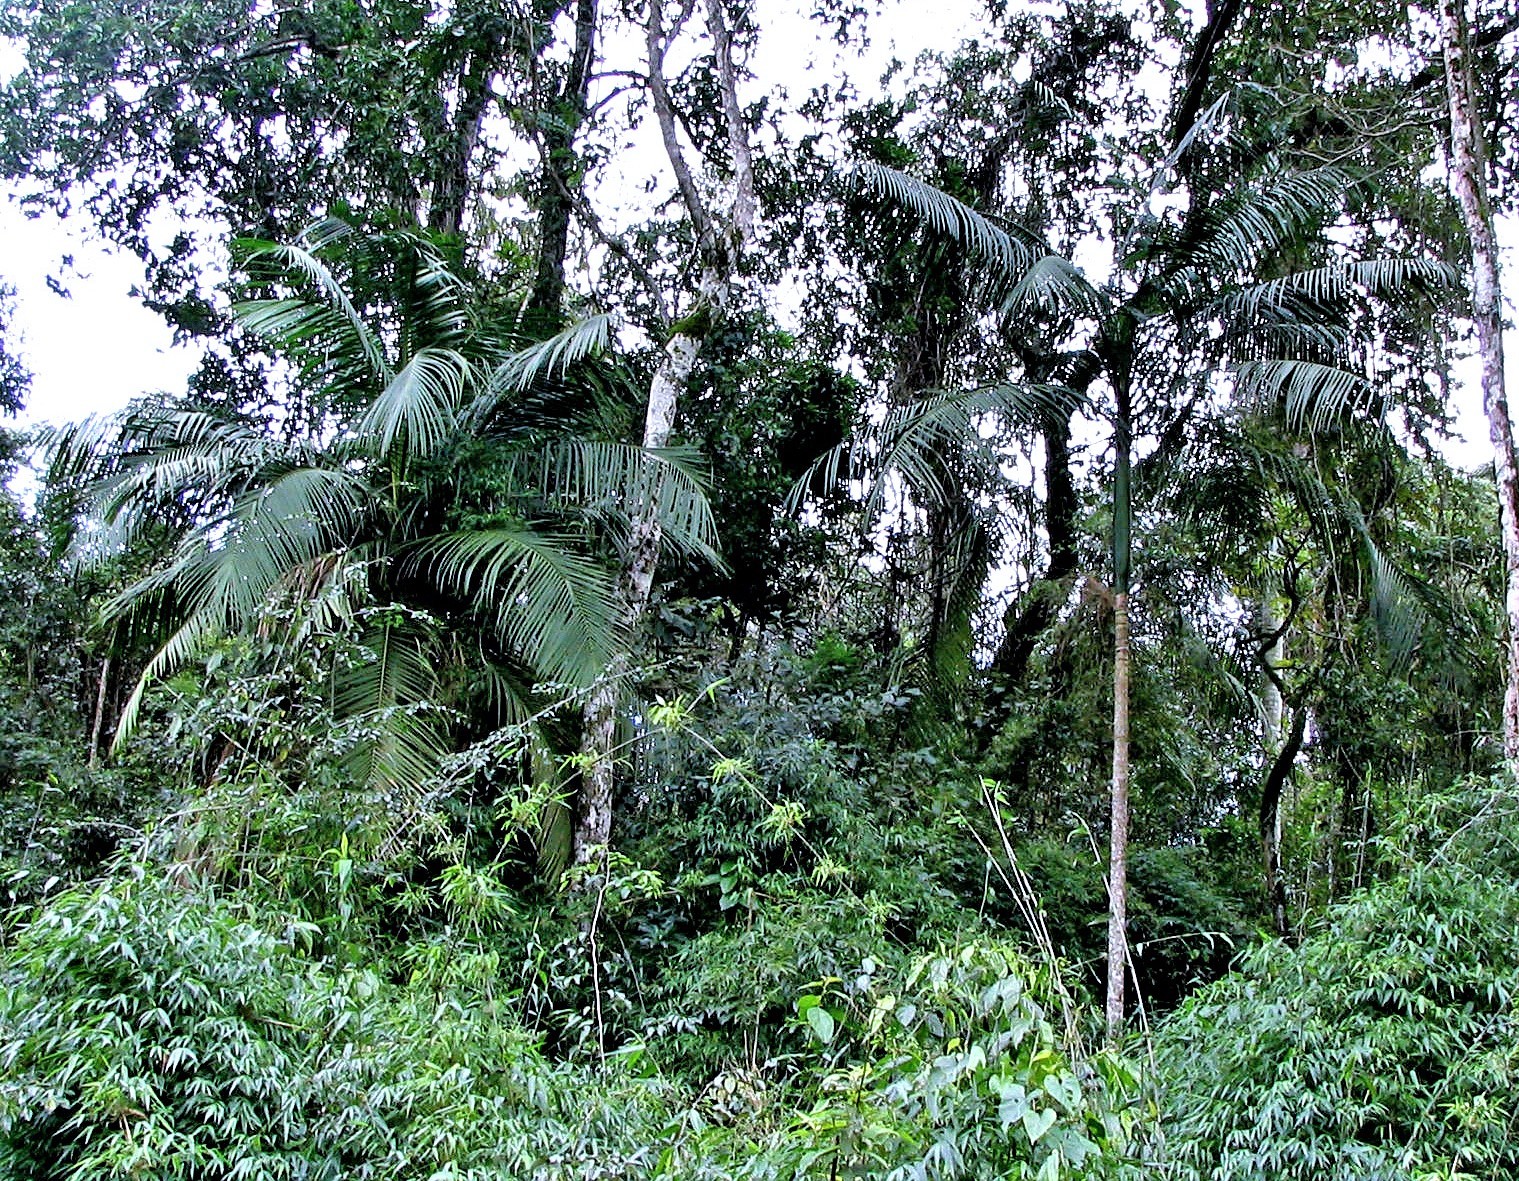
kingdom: Plantae
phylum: Tracheophyta
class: Liliopsida
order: Arecales
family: Arecaceae
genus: Euterpe
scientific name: Euterpe edulis
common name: Assai palm
